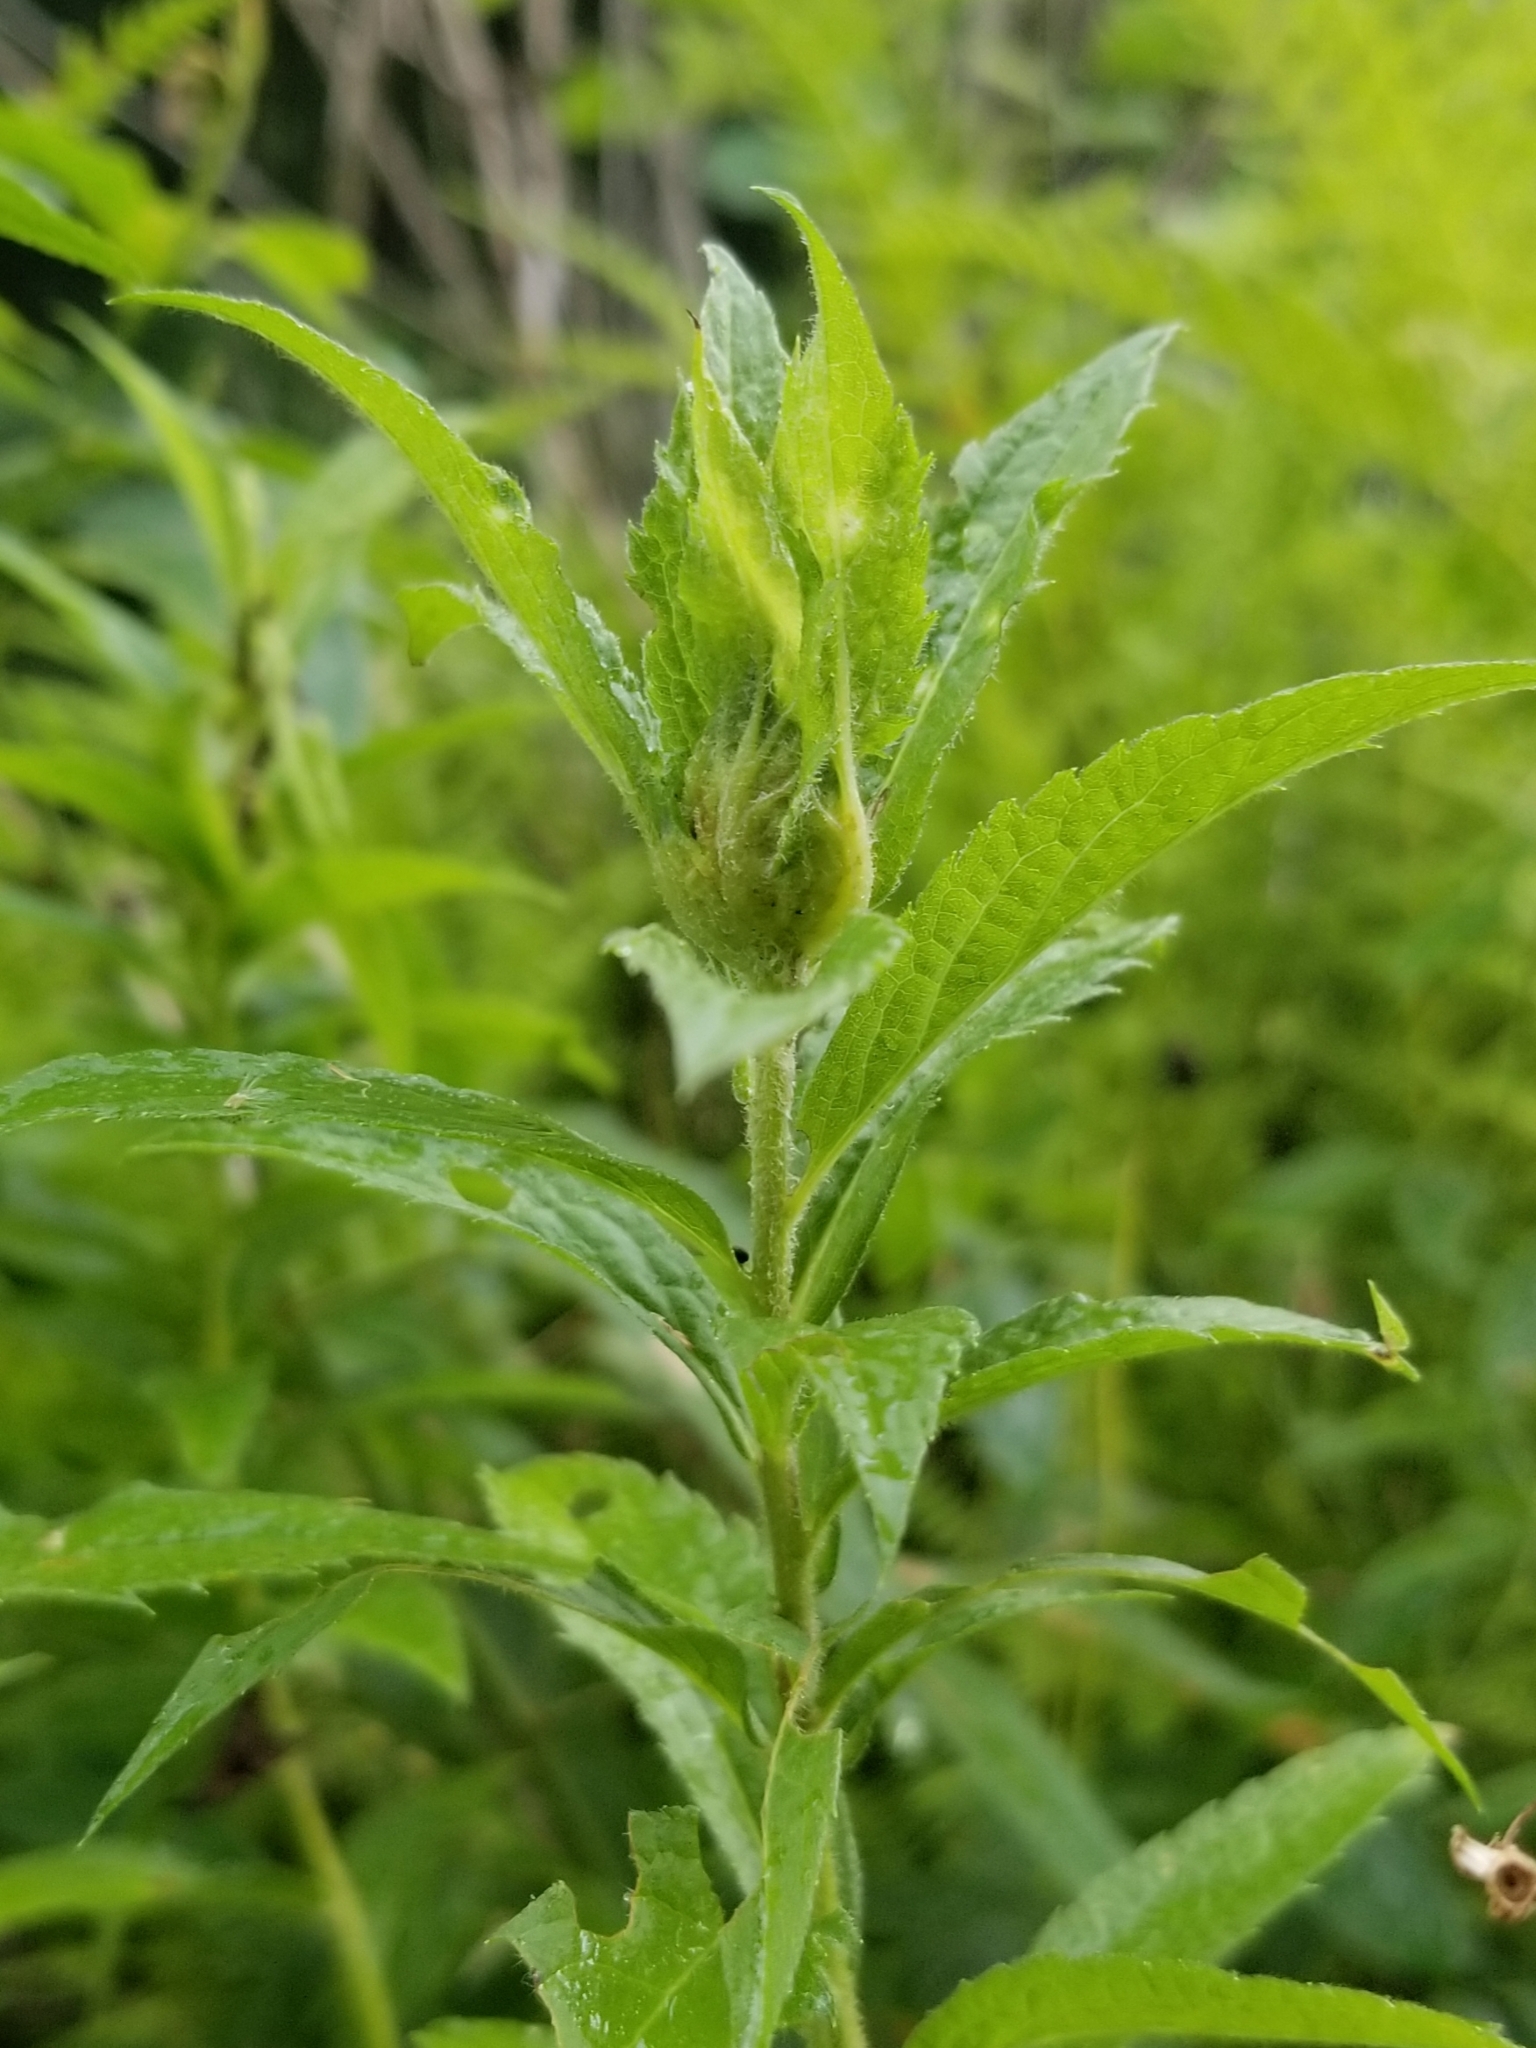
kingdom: Animalia
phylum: Arthropoda
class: Insecta
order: Diptera
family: Cecidomyiidae
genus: Dasineura
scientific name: Dasineura folliculi
